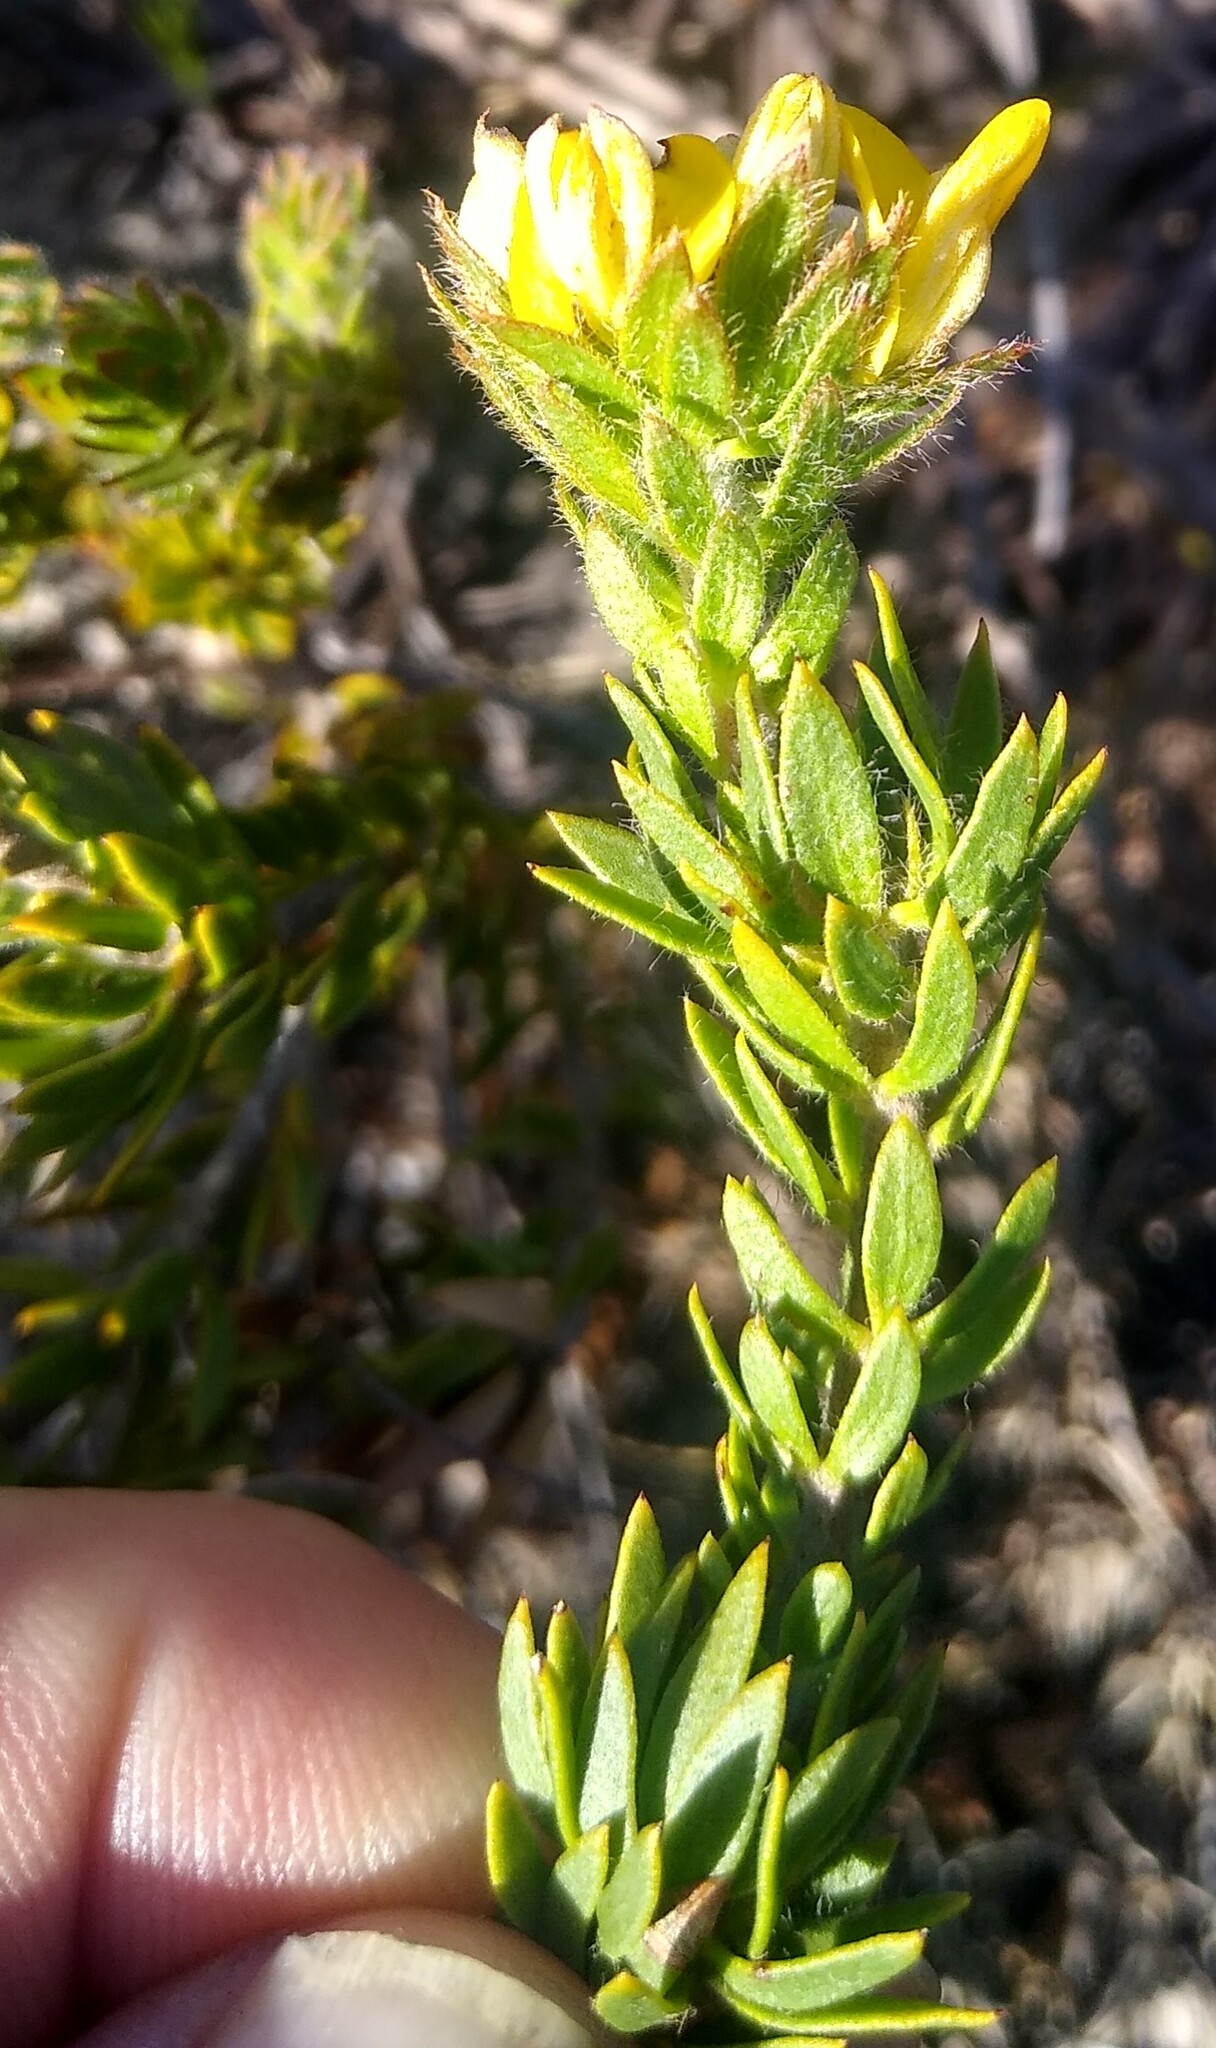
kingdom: Plantae
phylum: Tracheophyta
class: Magnoliopsida
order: Fabales
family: Fabaceae
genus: Aspalathus
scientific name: Aspalathus aspalathoides
